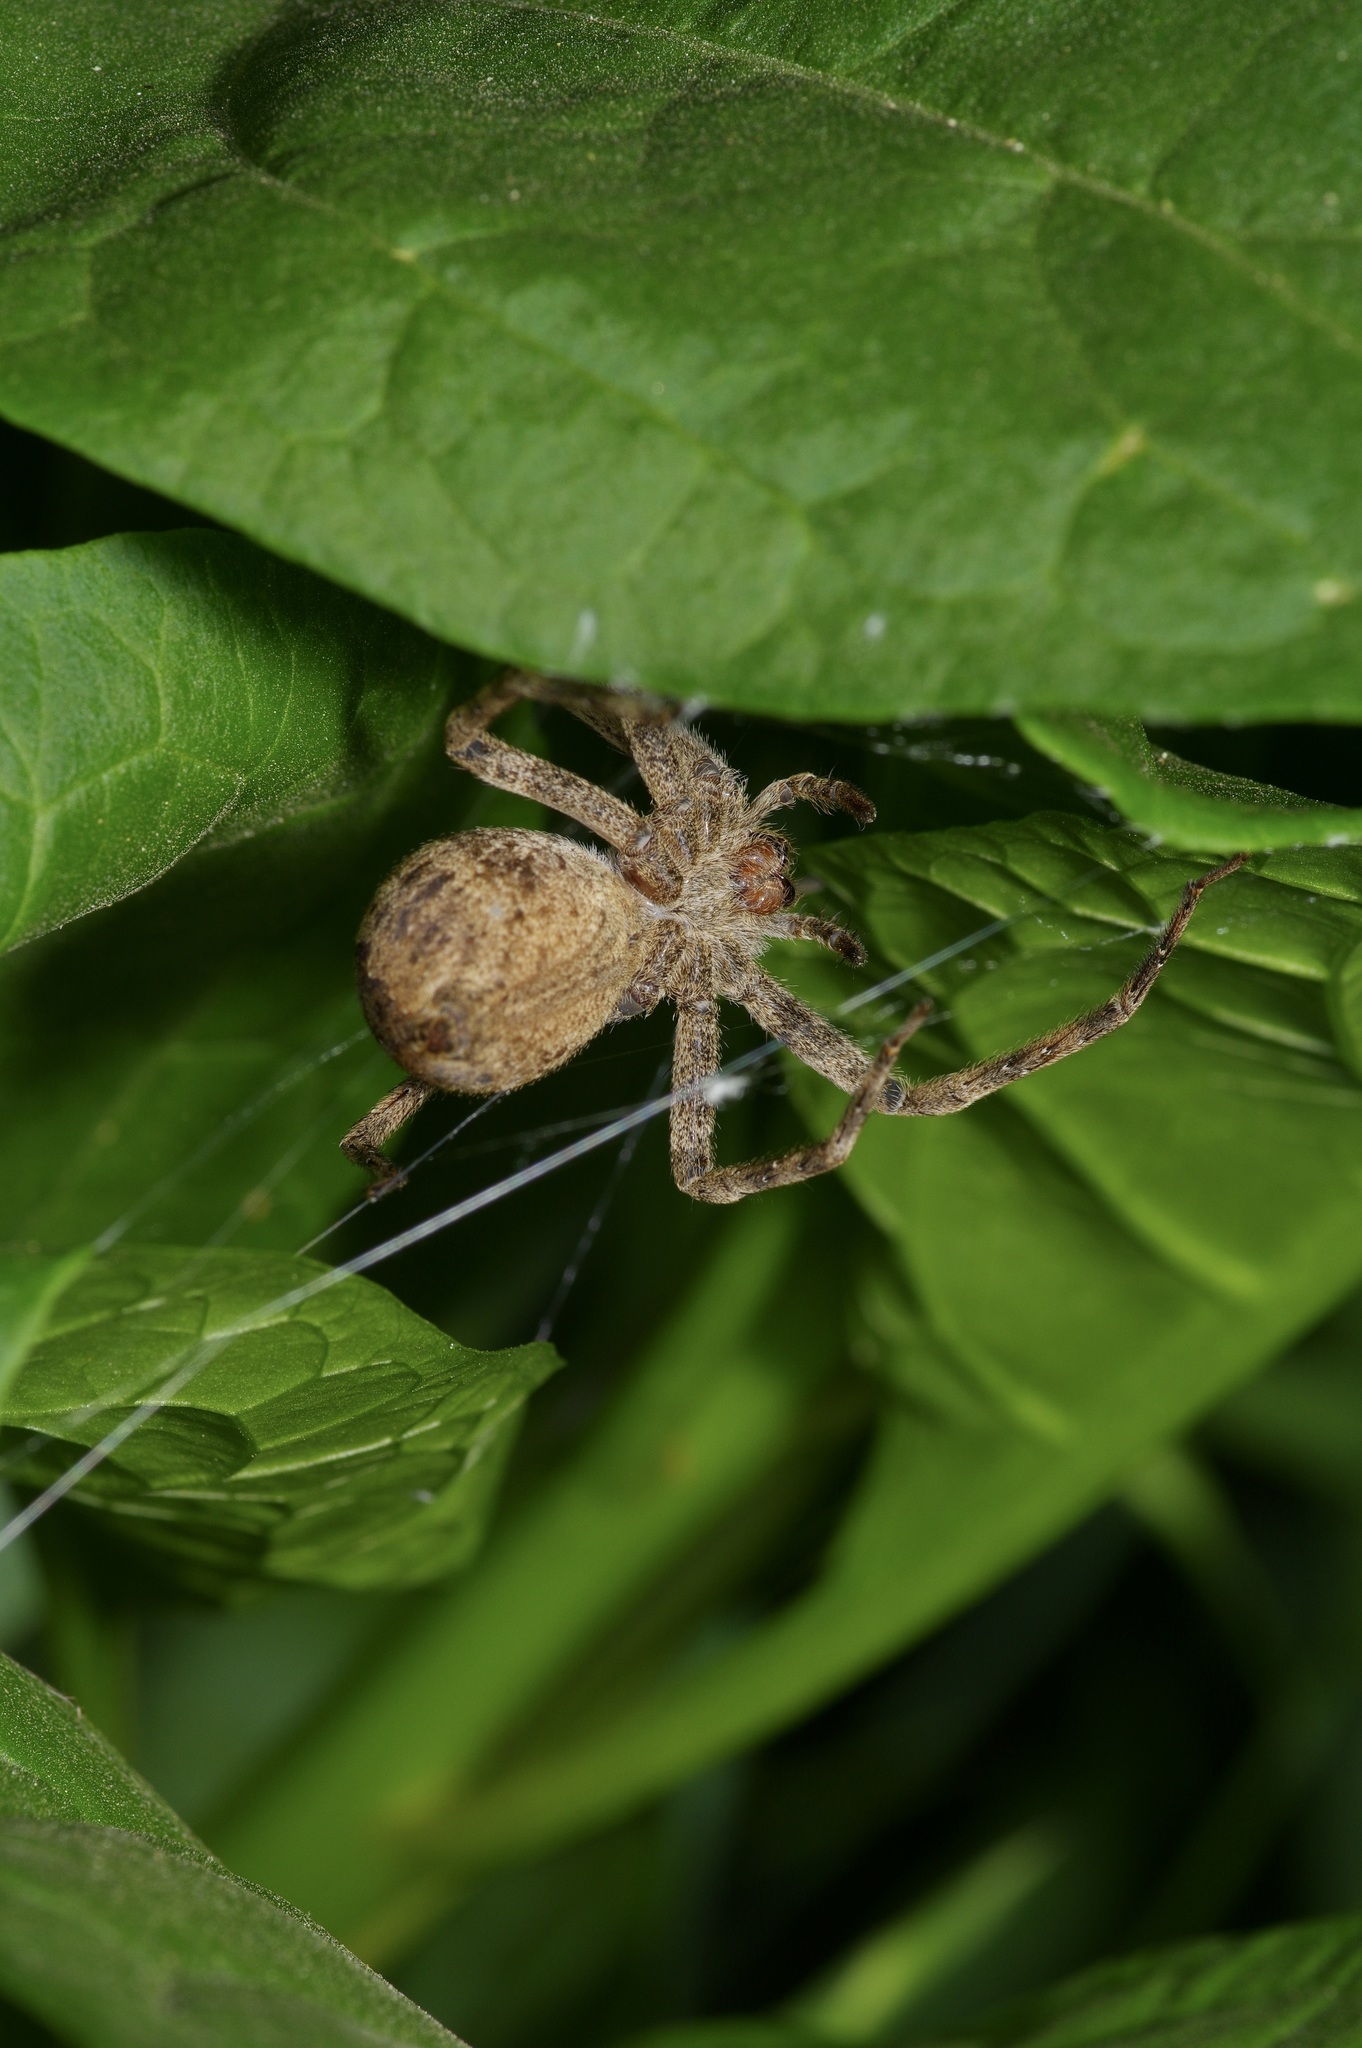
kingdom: Animalia
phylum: Arthropoda
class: Arachnida
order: Araneae
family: Pisauridae
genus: Pisaurina
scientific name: Pisaurina mira
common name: American nursery web spider
